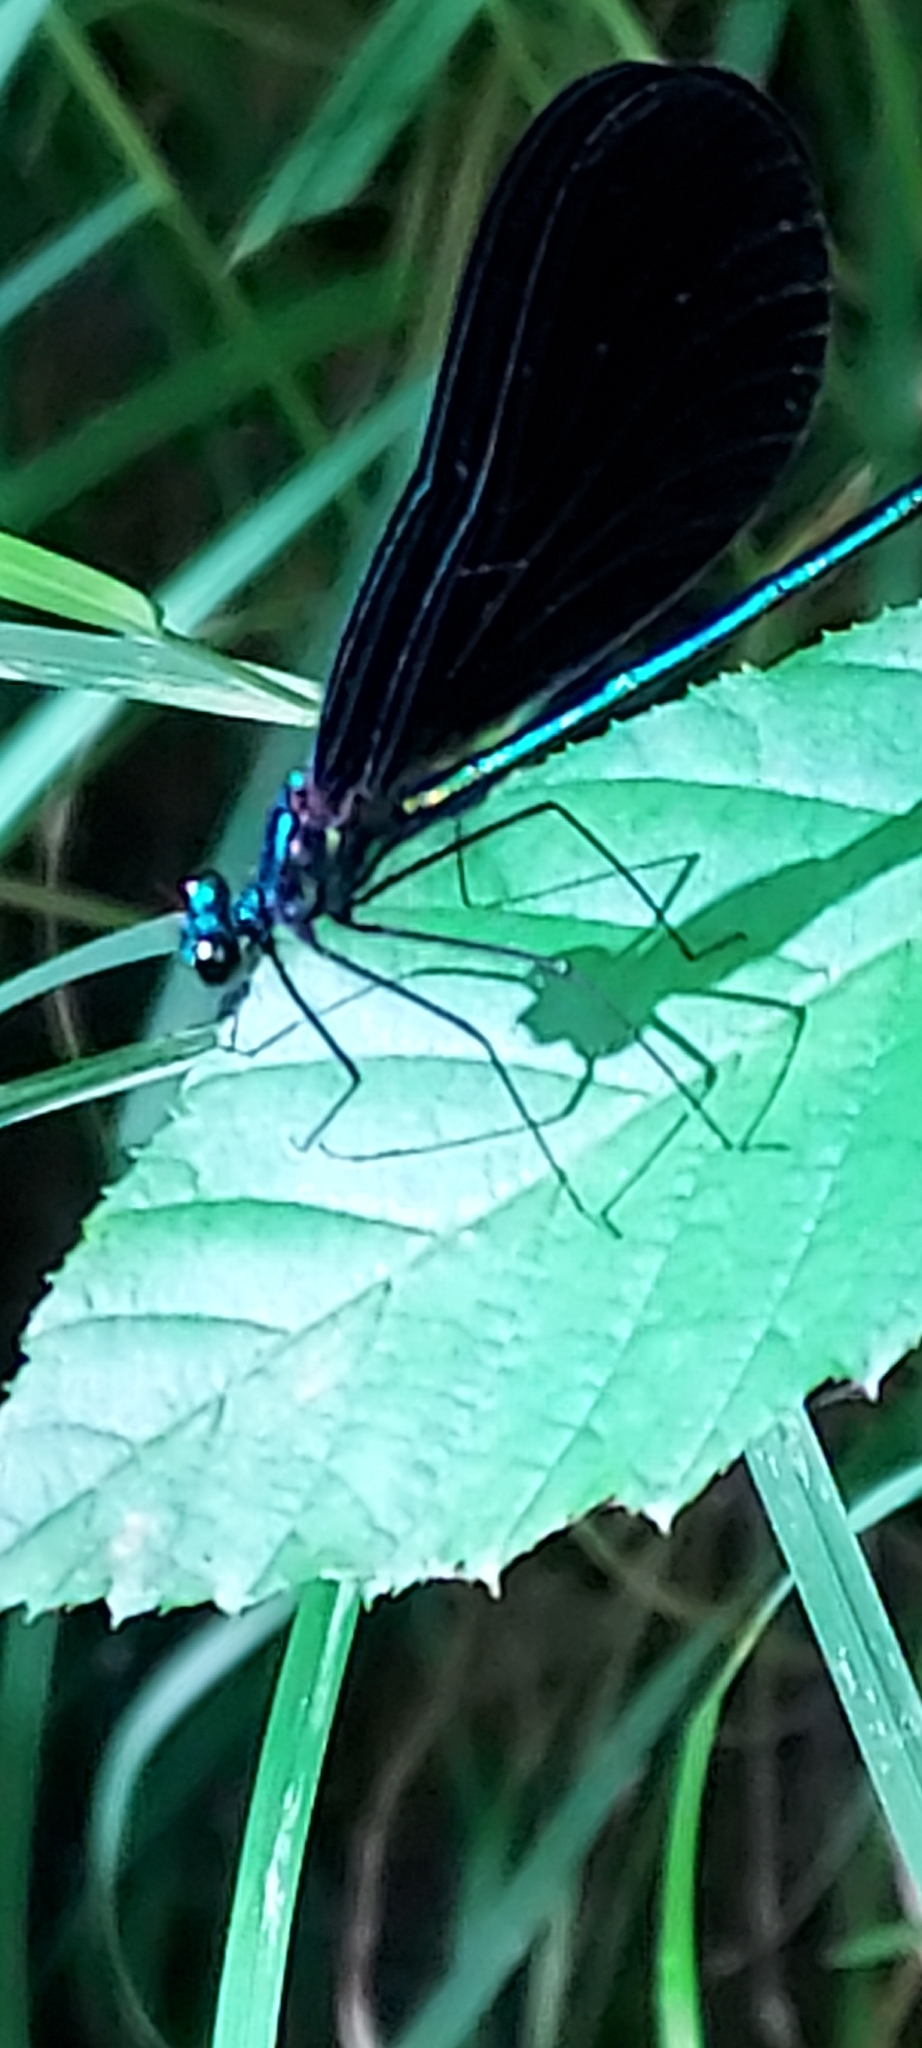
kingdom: Animalia
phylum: Arthropoda
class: Insecta
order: Odonata
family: Calopterygidae
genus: Calopteryx
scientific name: Calopteryx maculata
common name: Ebony jewelwing
